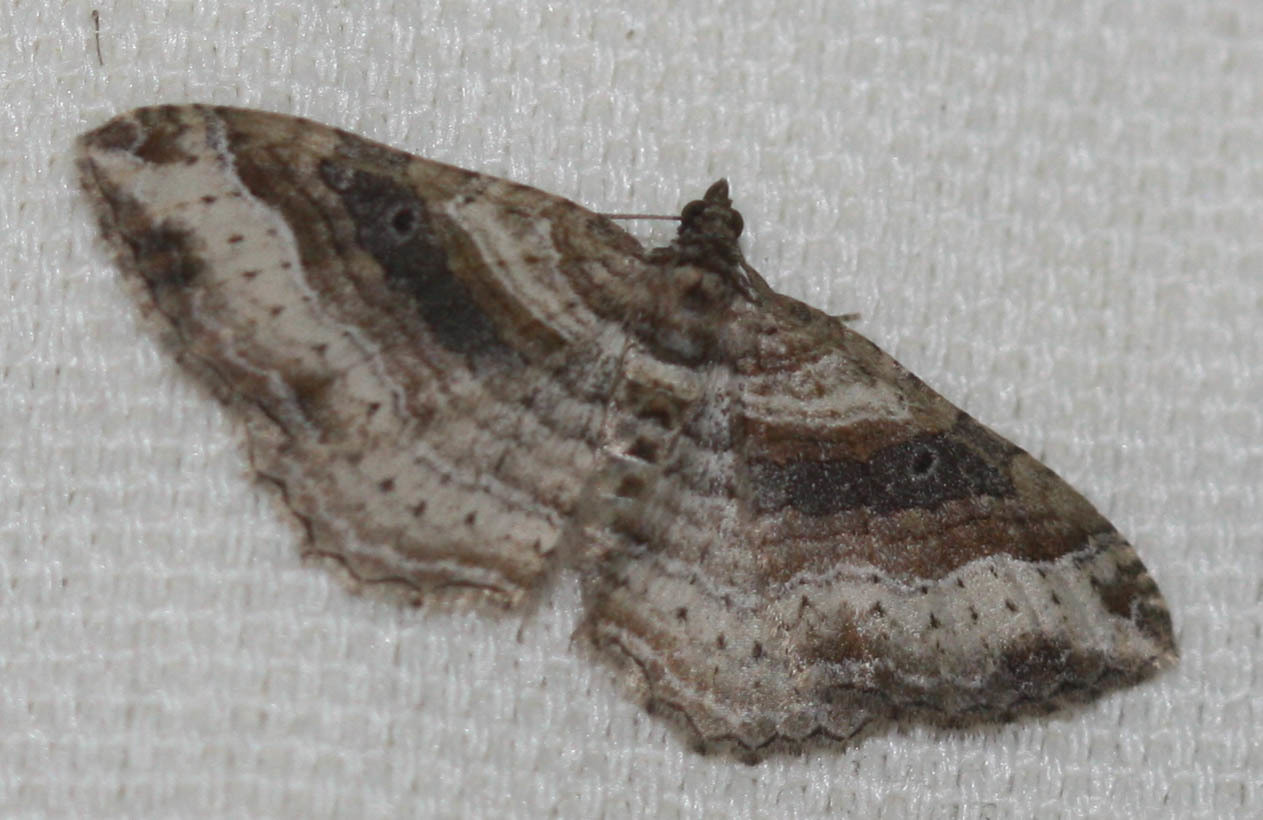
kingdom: Animalia
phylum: Arthropoda
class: Insecta
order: Lepidoptera
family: Geometridae
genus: Costaconvexa
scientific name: Costaconvexa centrostrigaria
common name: Bent-line carpet
